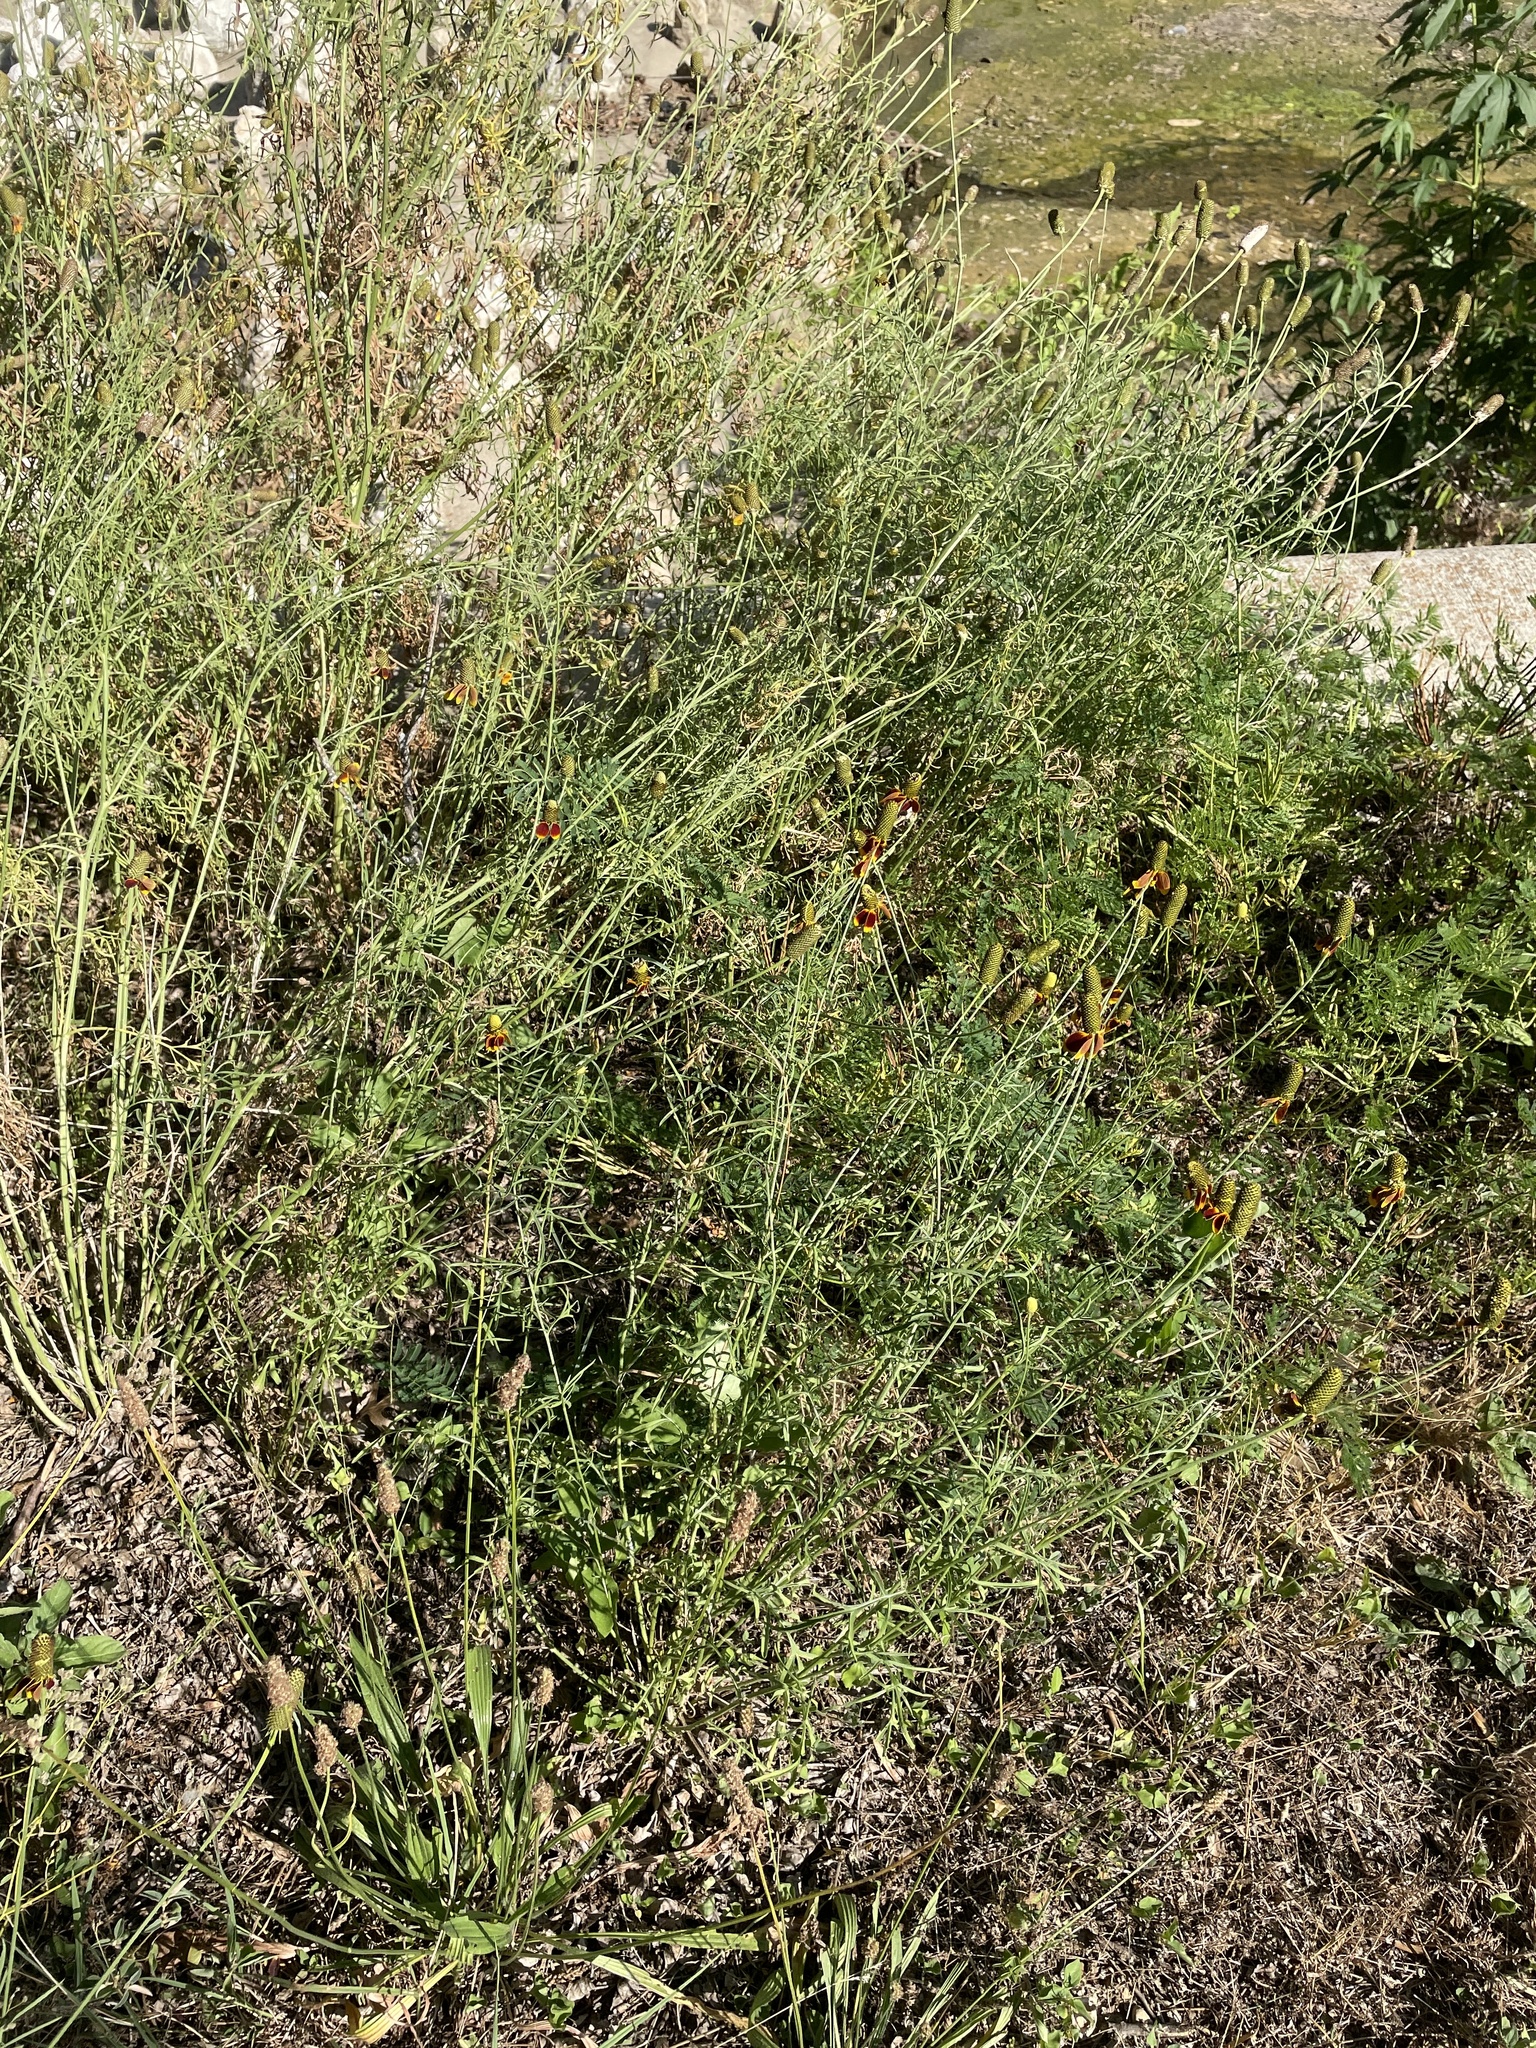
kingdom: Plantae
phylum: Tracheophyta
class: Magnoliopsida
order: Asterales
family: Asteraceae
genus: Ratibida
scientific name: Ratibida columnifera
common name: Prairie coneflower
